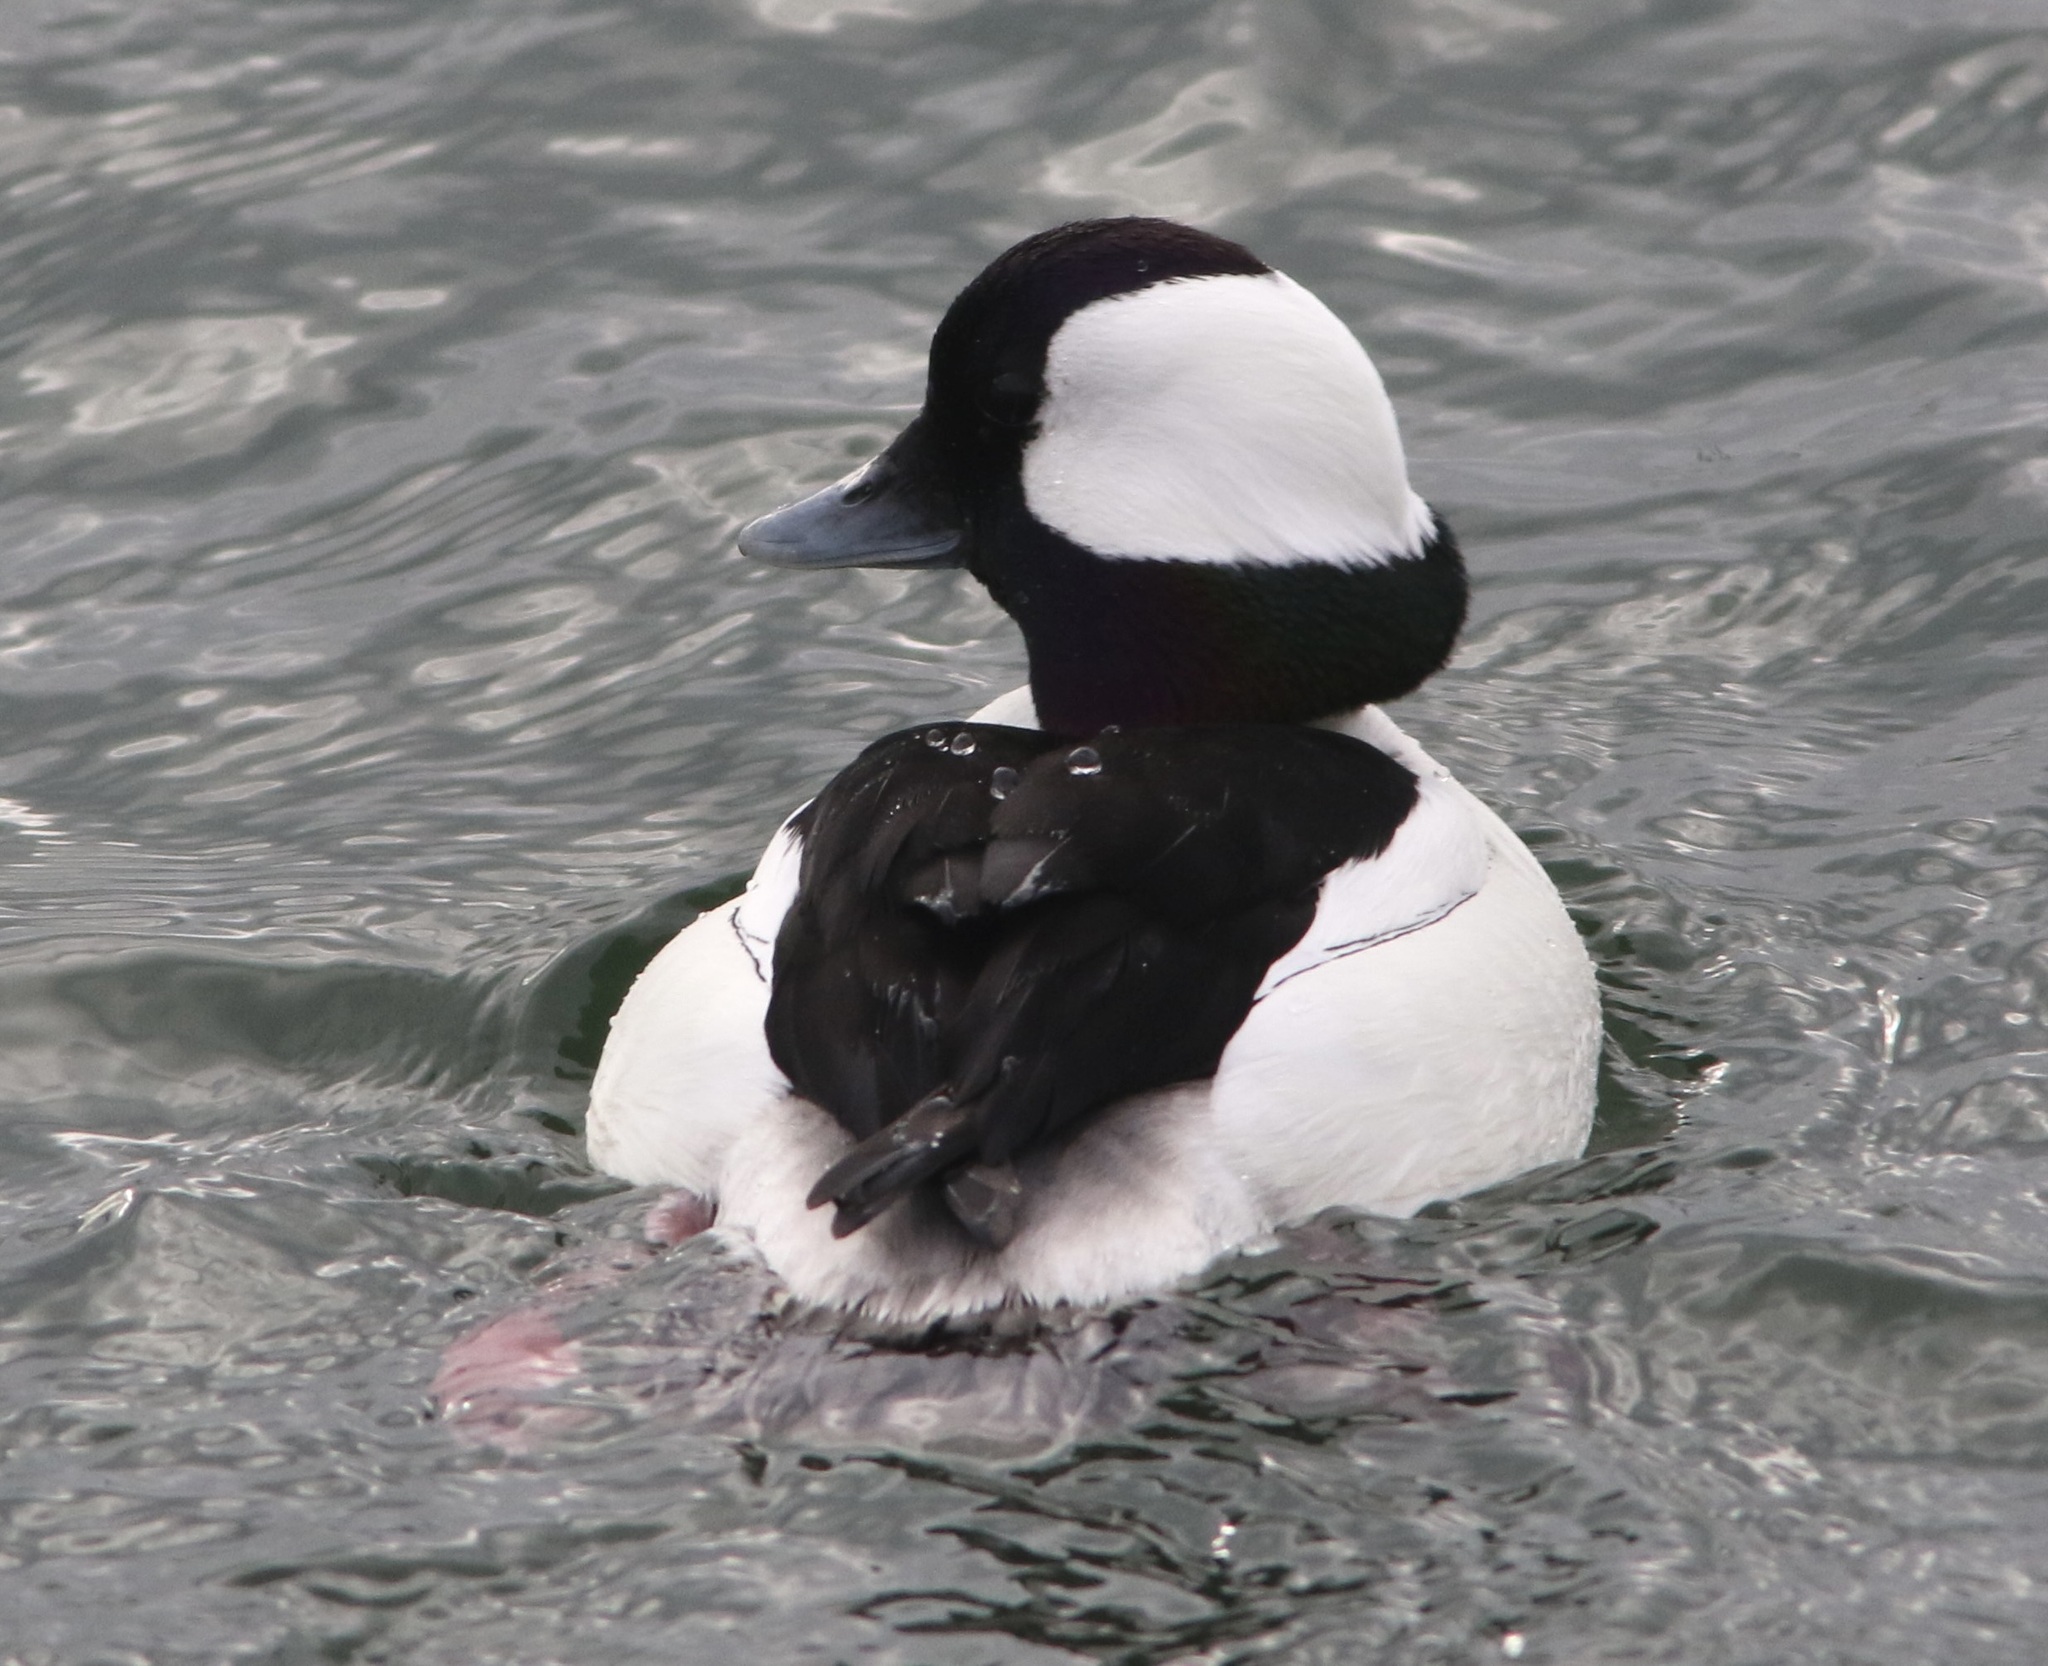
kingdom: Animalia
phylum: Chordata
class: Aves
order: Anseriformes
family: Anatidae
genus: Bucephala
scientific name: Bucephala albeola
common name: Bufflehead
